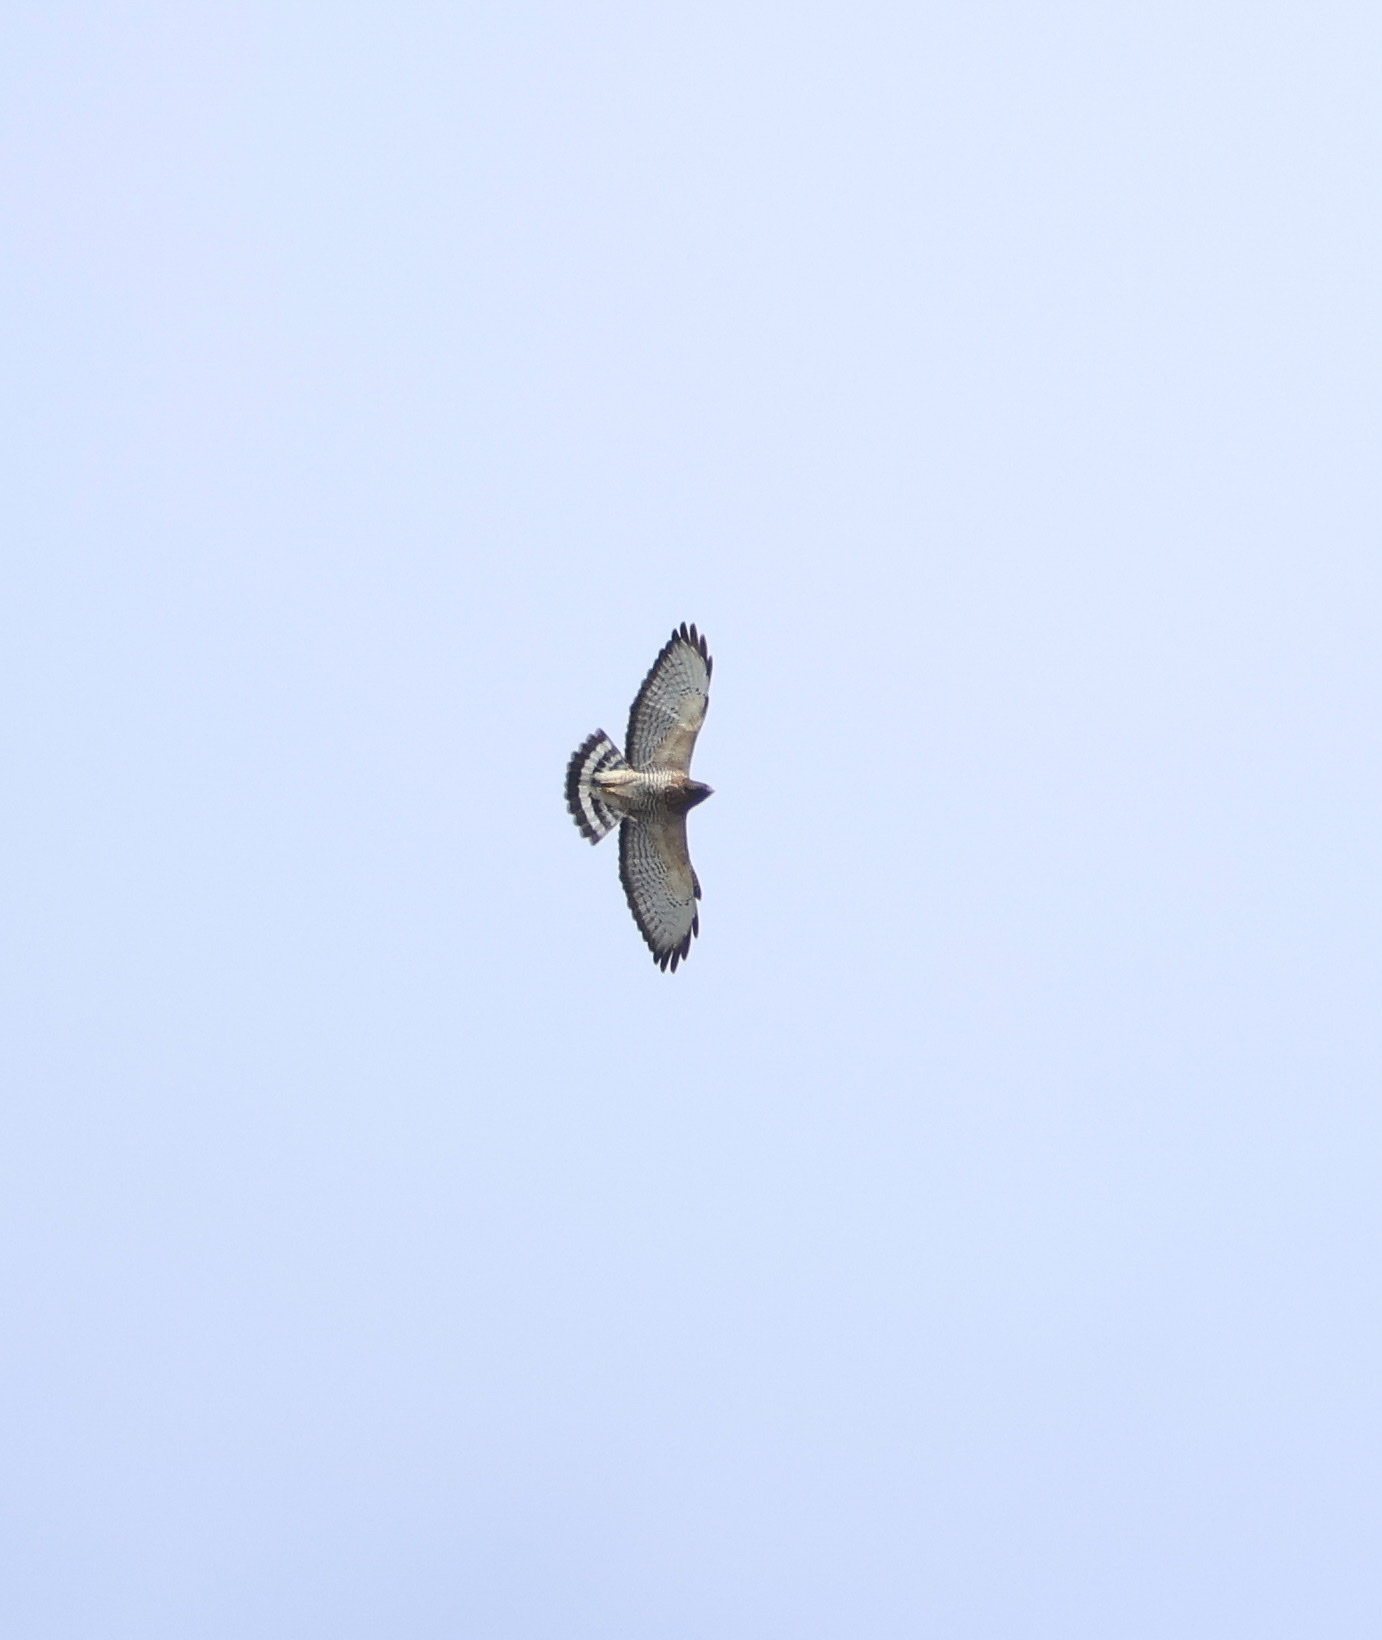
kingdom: Animalia
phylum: Chordata
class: Aves
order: Accipitriformes
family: Accipitridae
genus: Buteo
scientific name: Buteo platypterus
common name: Broad-winged hawk
